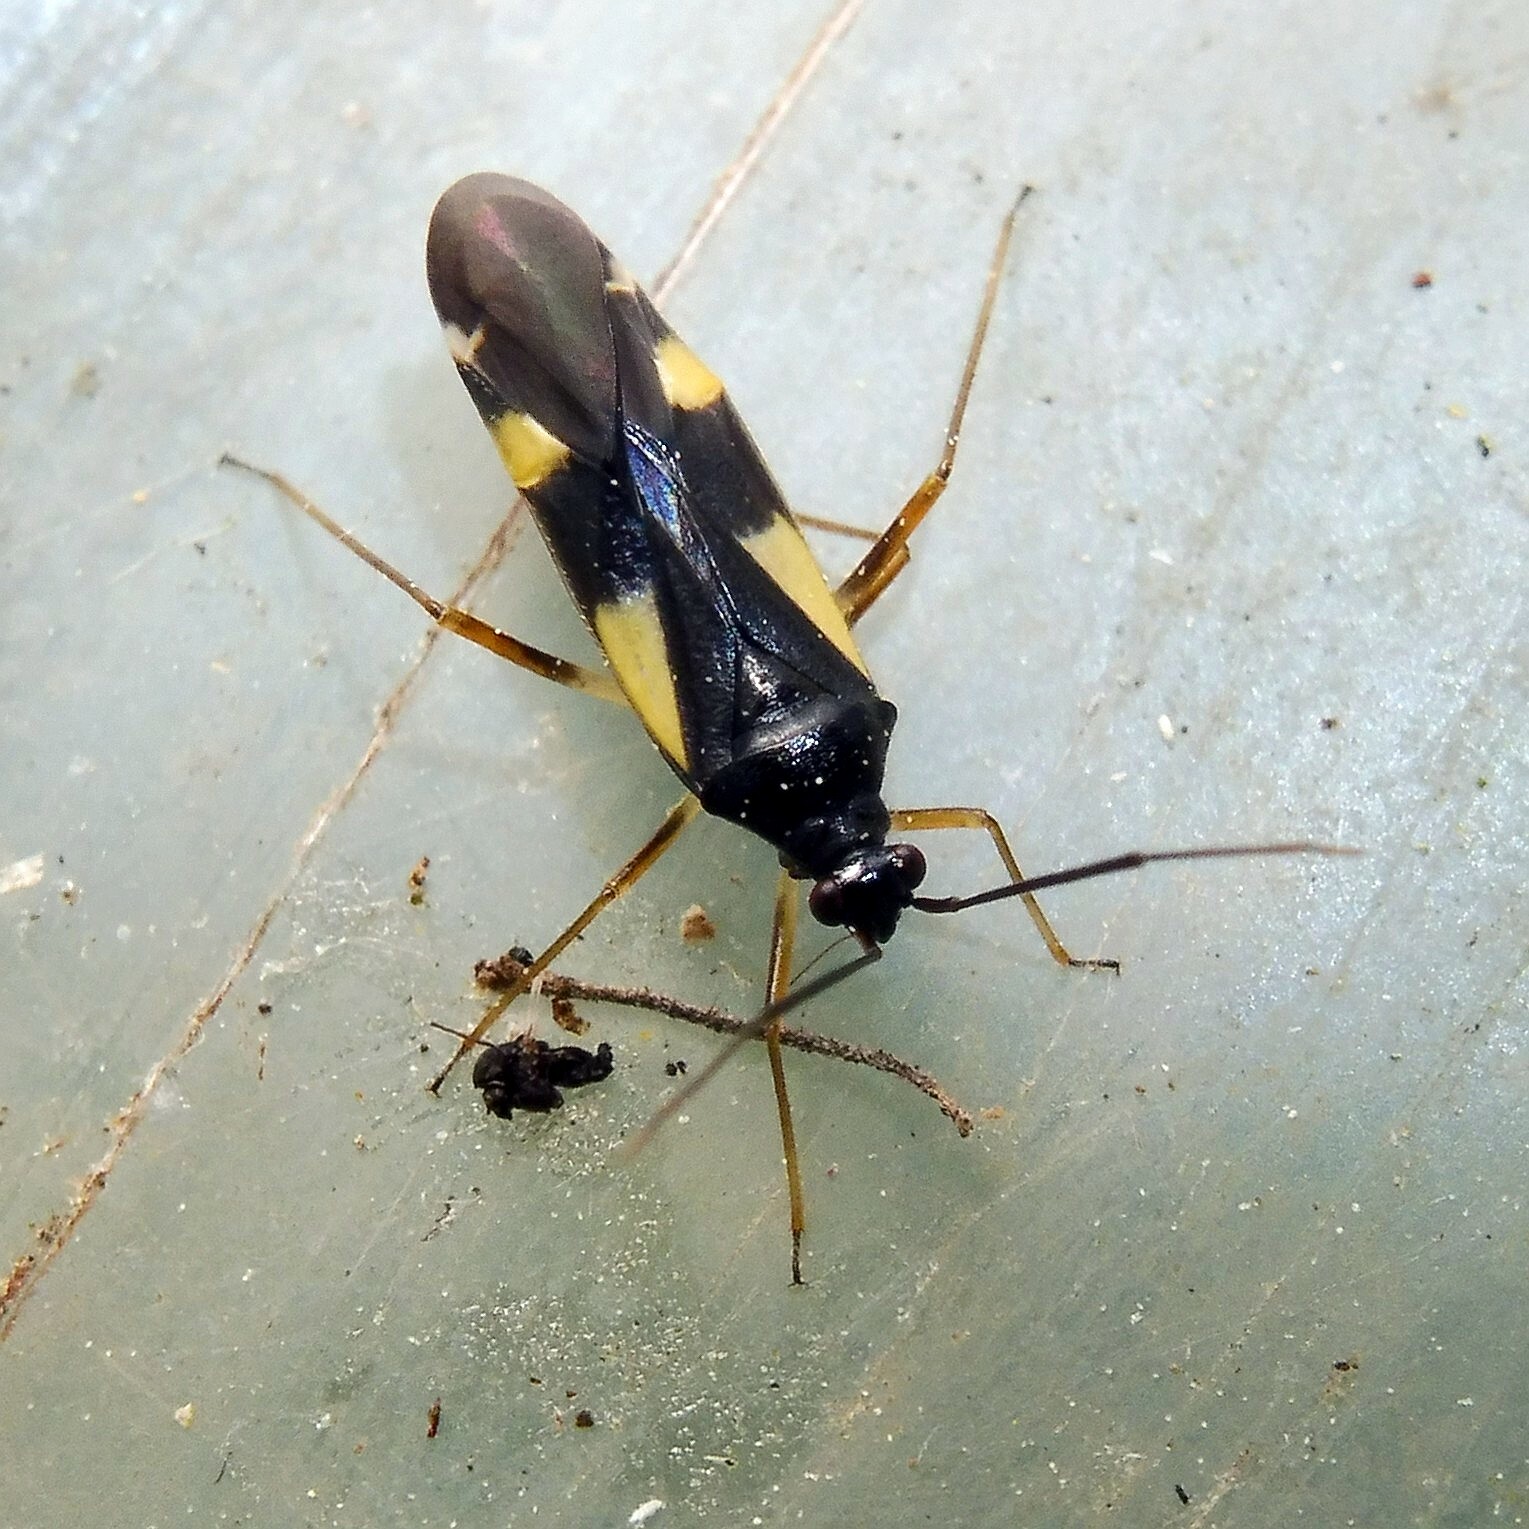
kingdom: Animalia
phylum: Arthropoda
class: Insecta
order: Hemiptera
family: Miridae
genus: Dryophilocoris
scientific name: Dryophilocoris flavoquadrimaculatus
